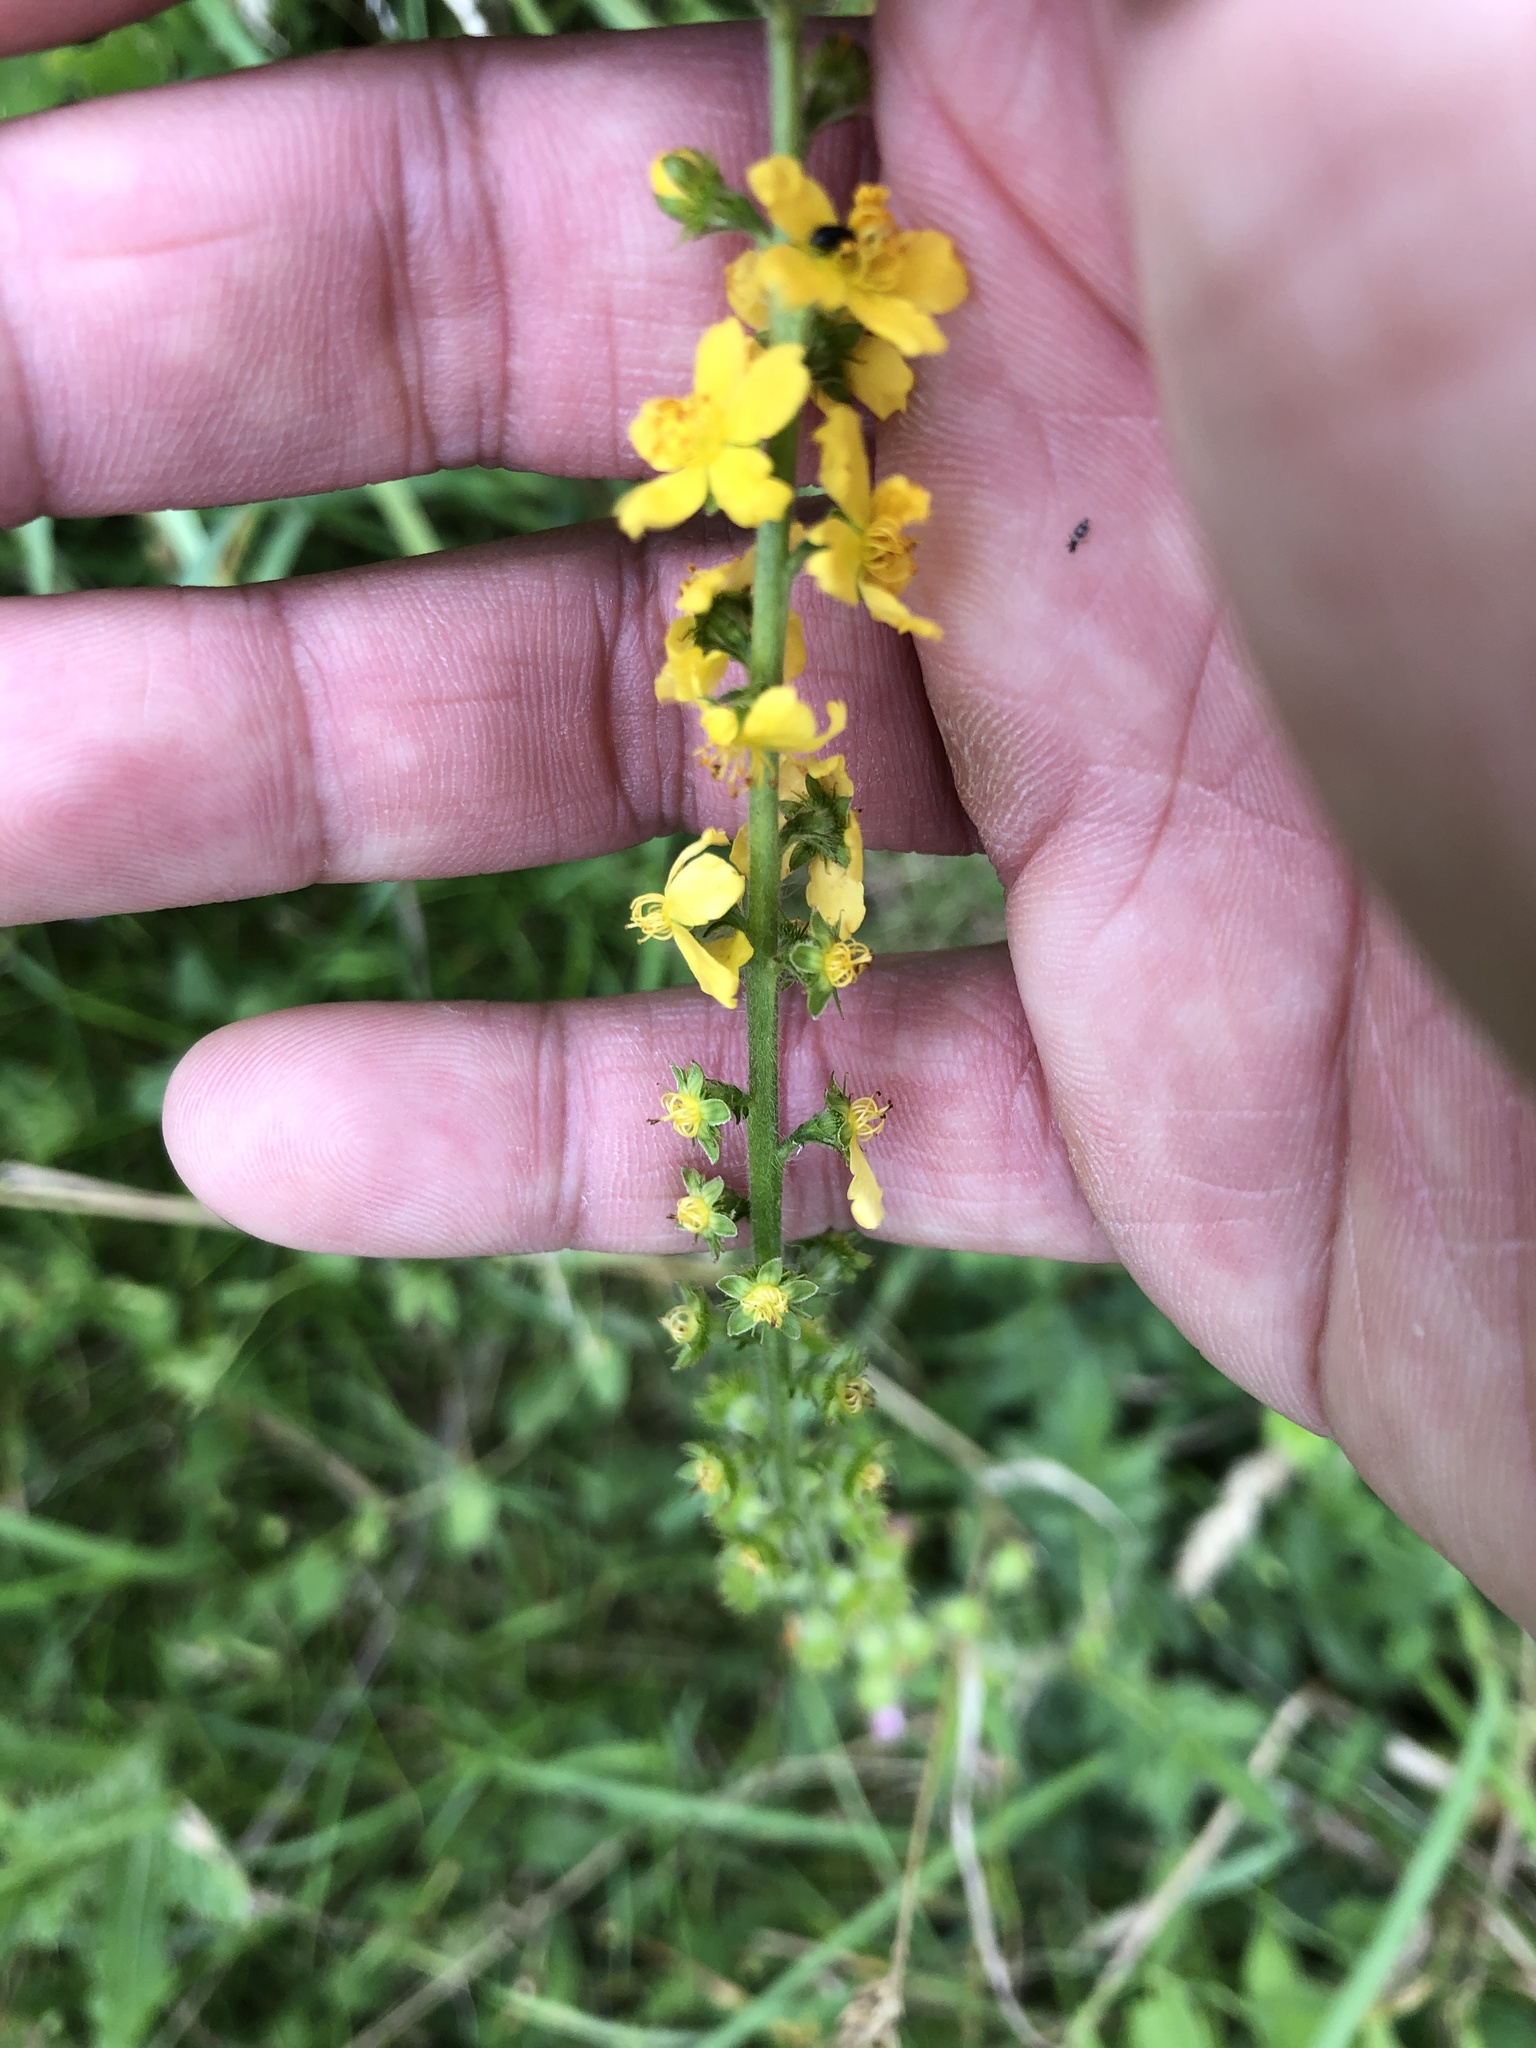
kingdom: Plantae
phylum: Tracheophyta
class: Magnoliopsida
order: Rosales
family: Rosaceae
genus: Agrimonia
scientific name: Agrimonia eupatoria
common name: Agrimony
